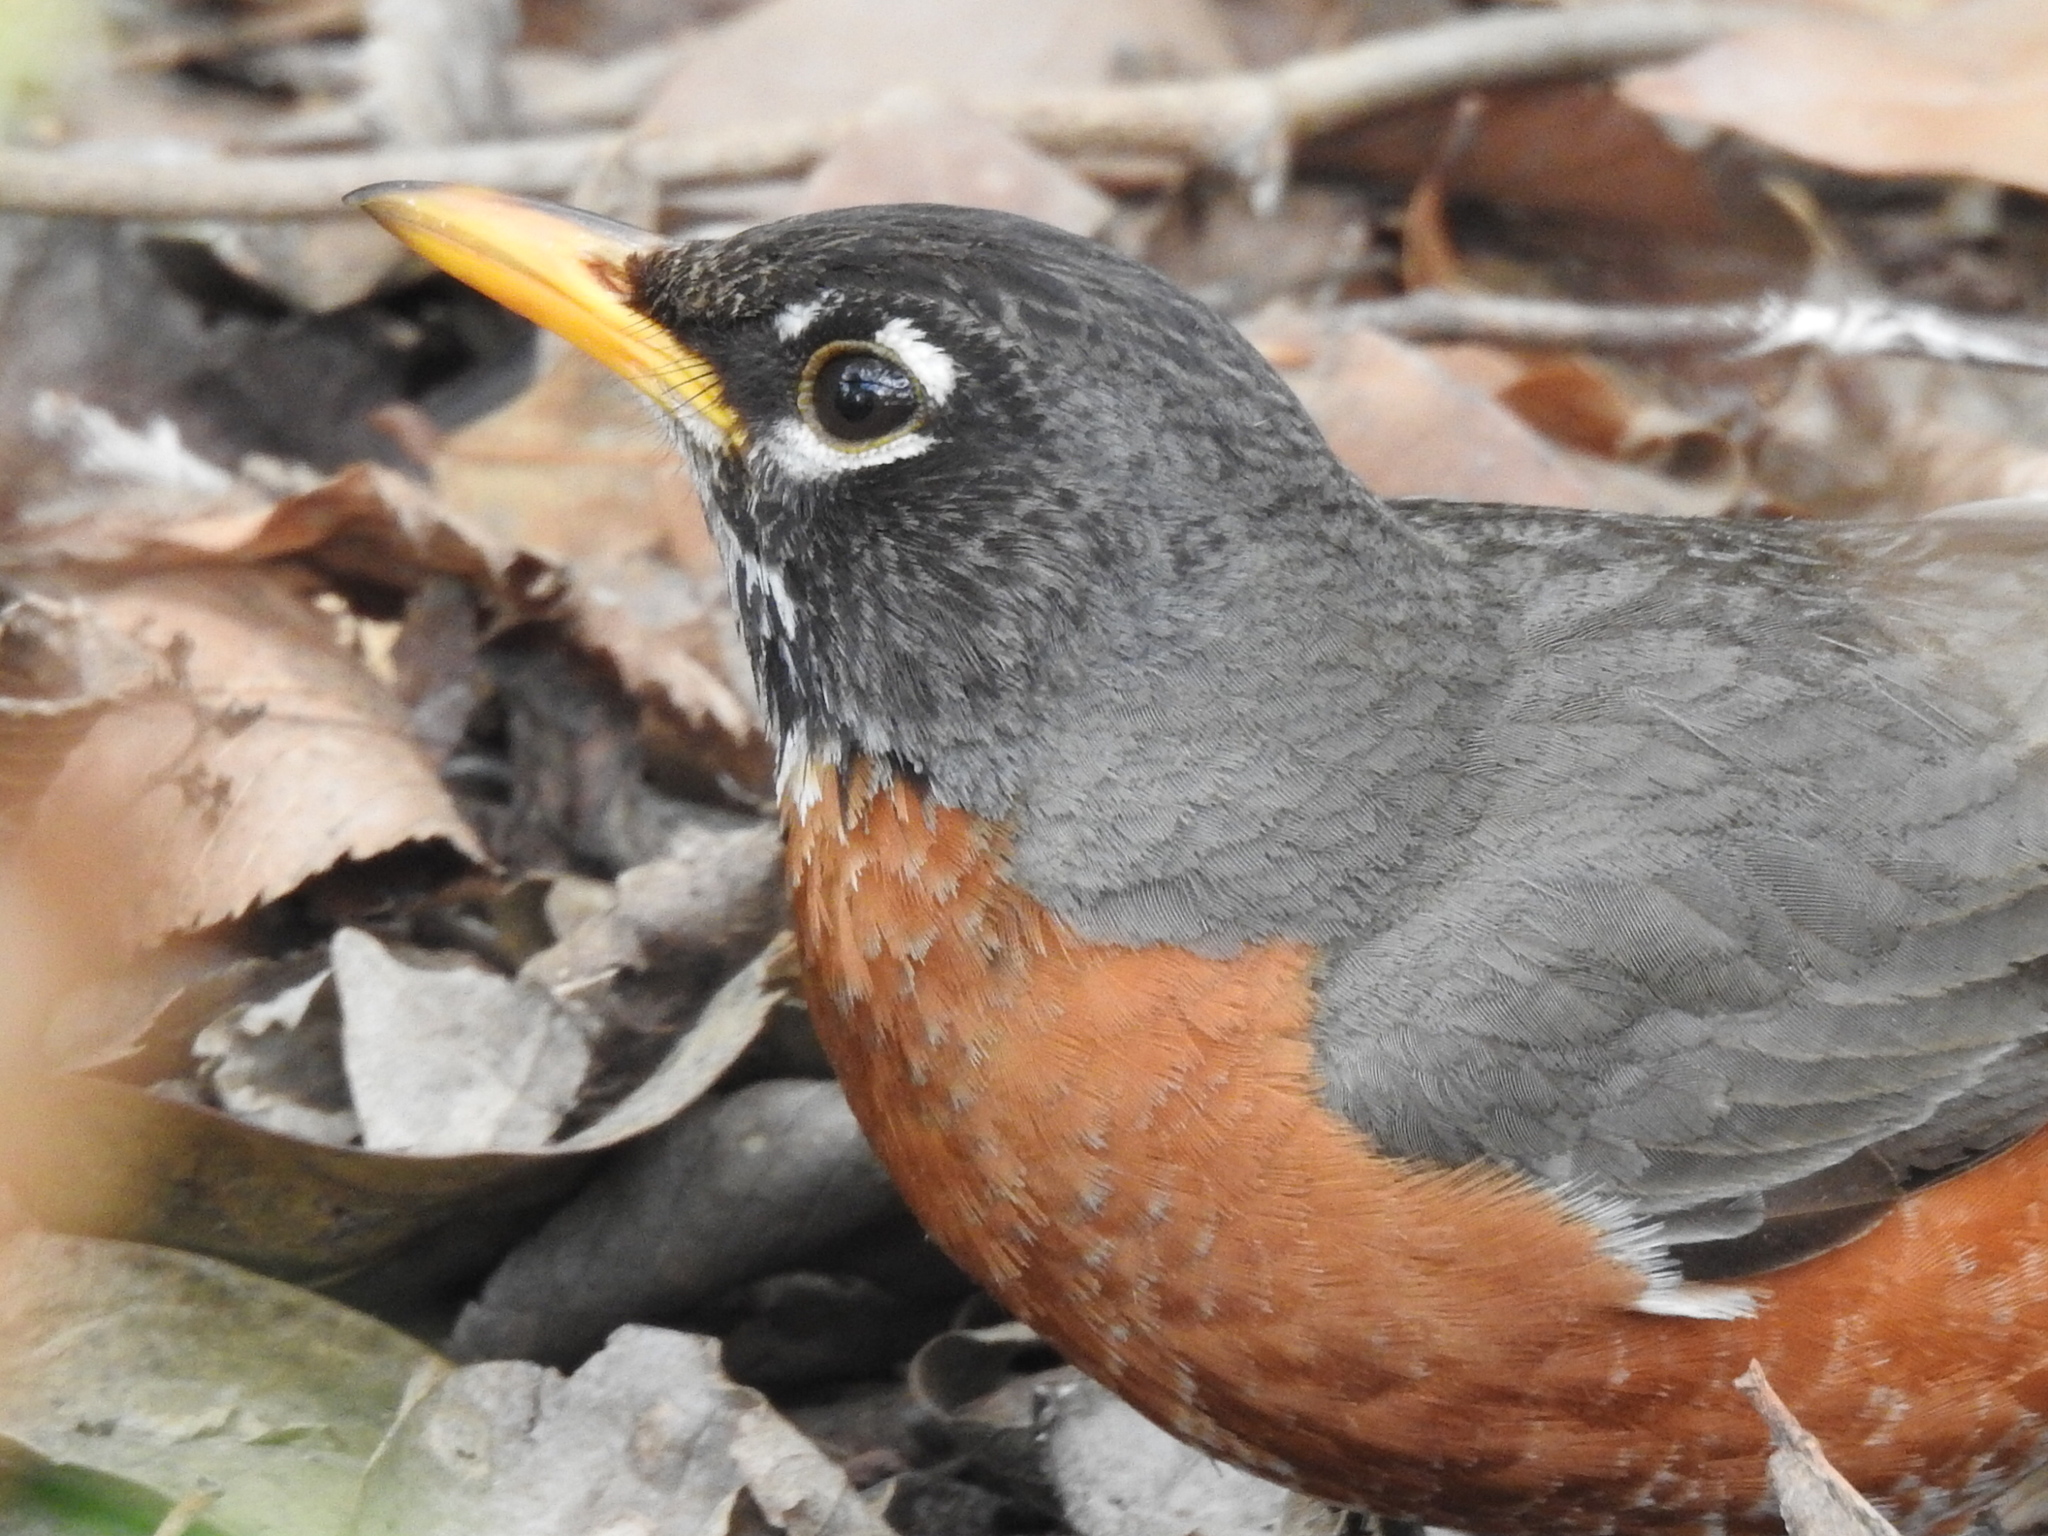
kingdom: Animalia
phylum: Chordata
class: Aves
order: Passeriformes
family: Turdidae
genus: Turdus
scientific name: Turdus migratorius
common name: American robin
